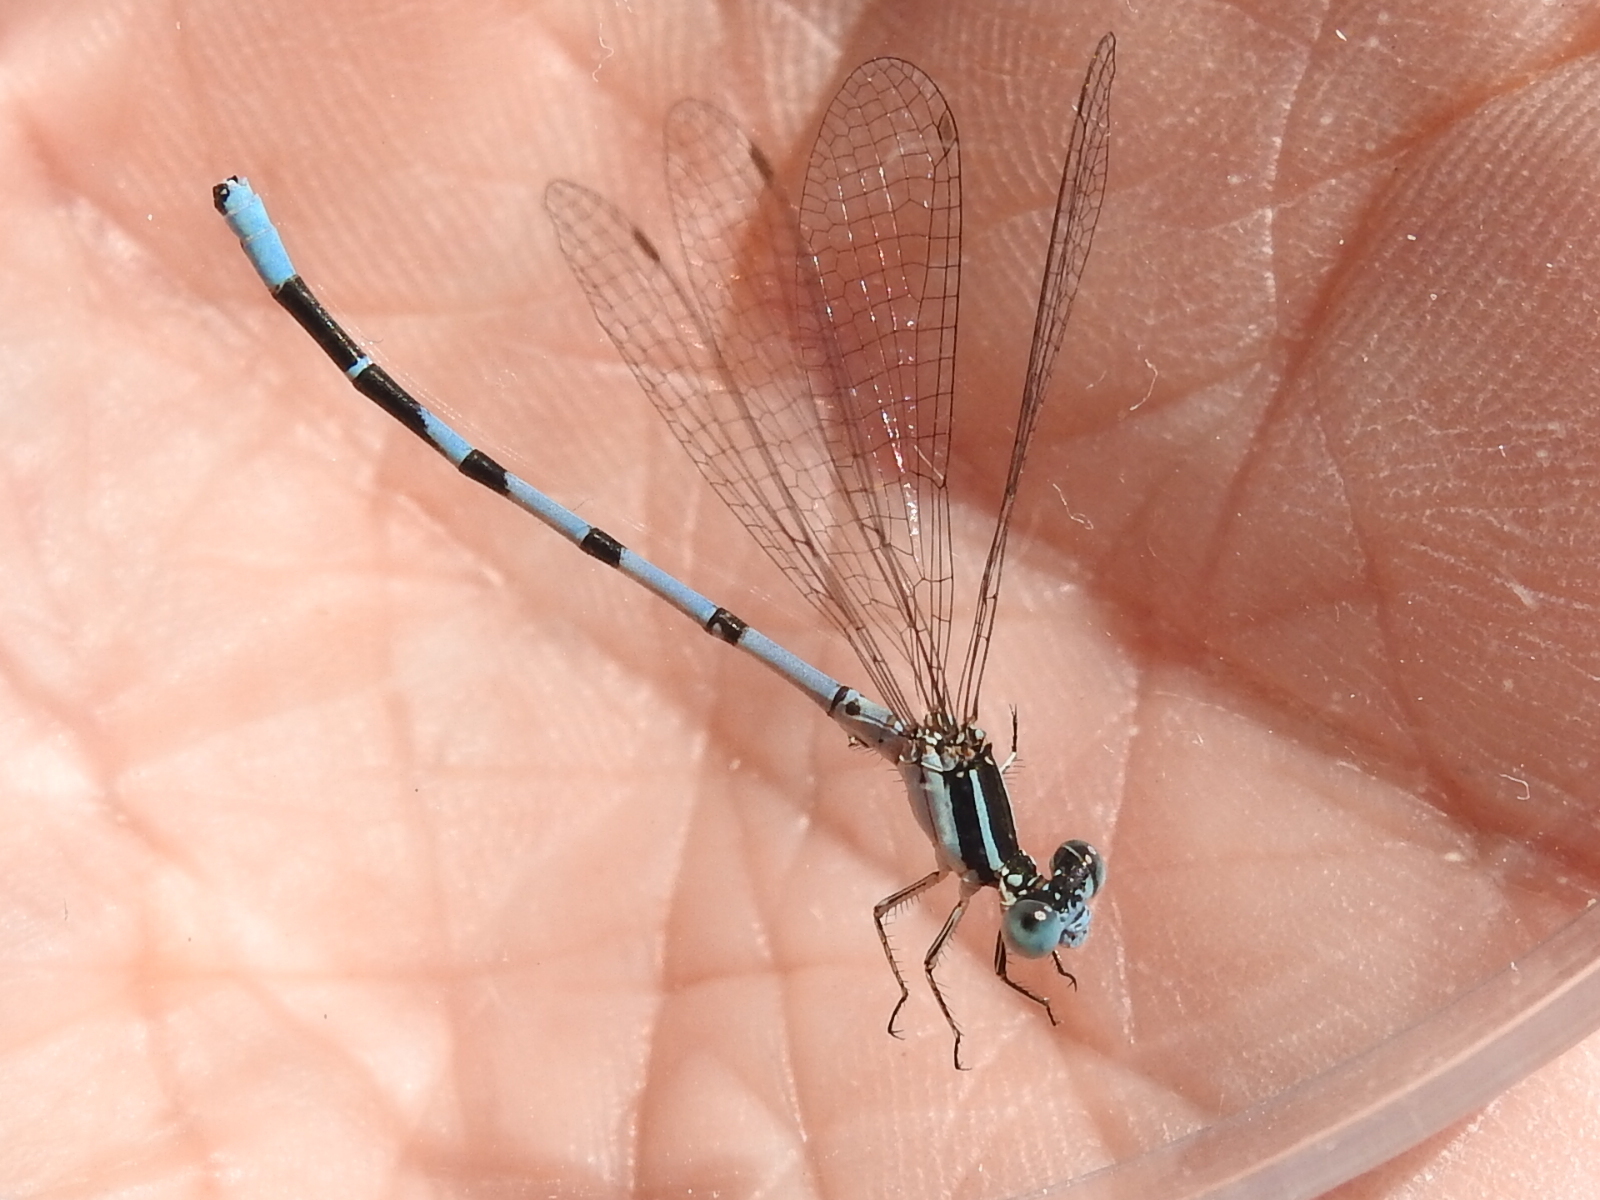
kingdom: Animalia
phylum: Arthropoda
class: Insecta
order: Odonata
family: Coenagrionidae
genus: Argia
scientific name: Argia bipunctulata
